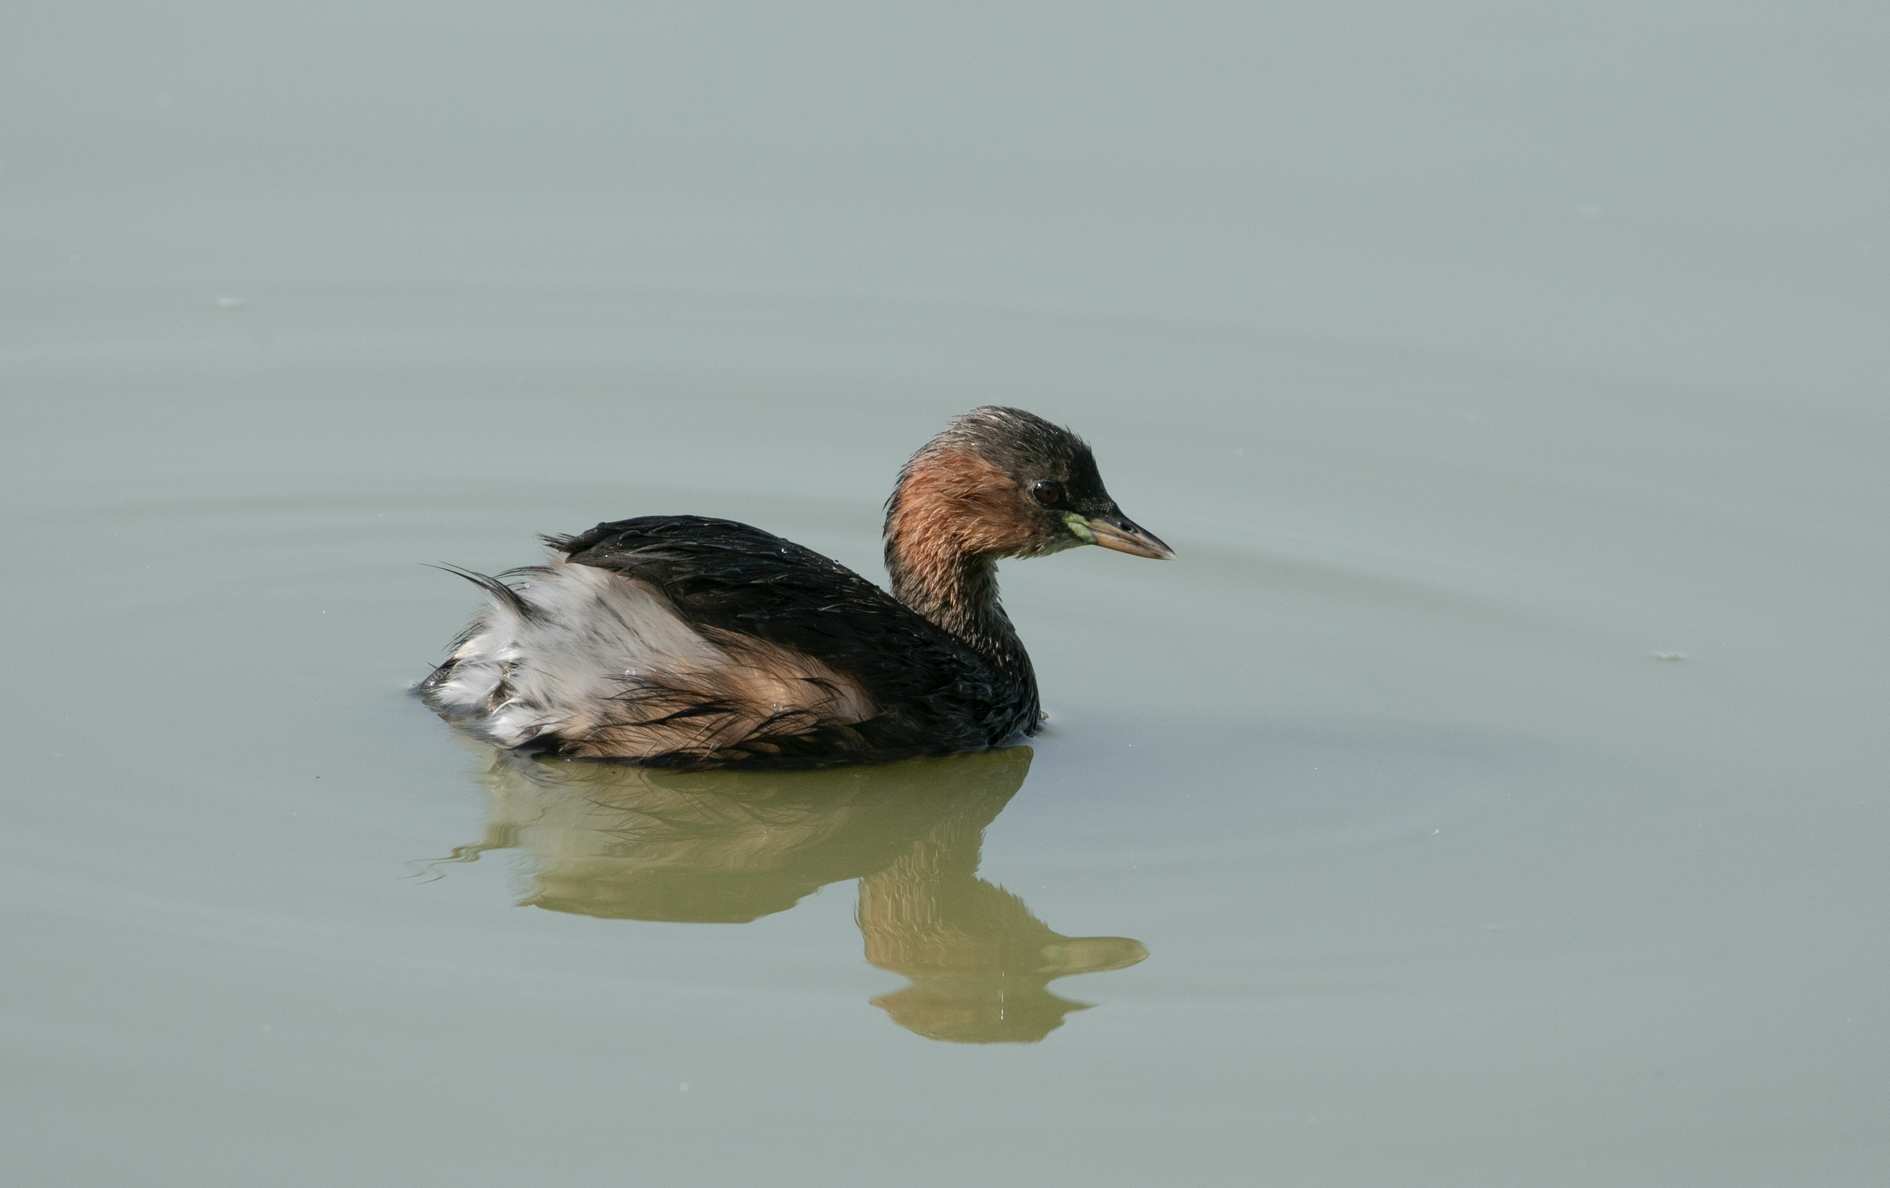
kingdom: Animalia
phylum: Chordata
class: Aves
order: Podicipediformes
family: Podicipedidae
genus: Tachybaptus
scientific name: Tachybaptus ruficollis
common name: Little grebe
